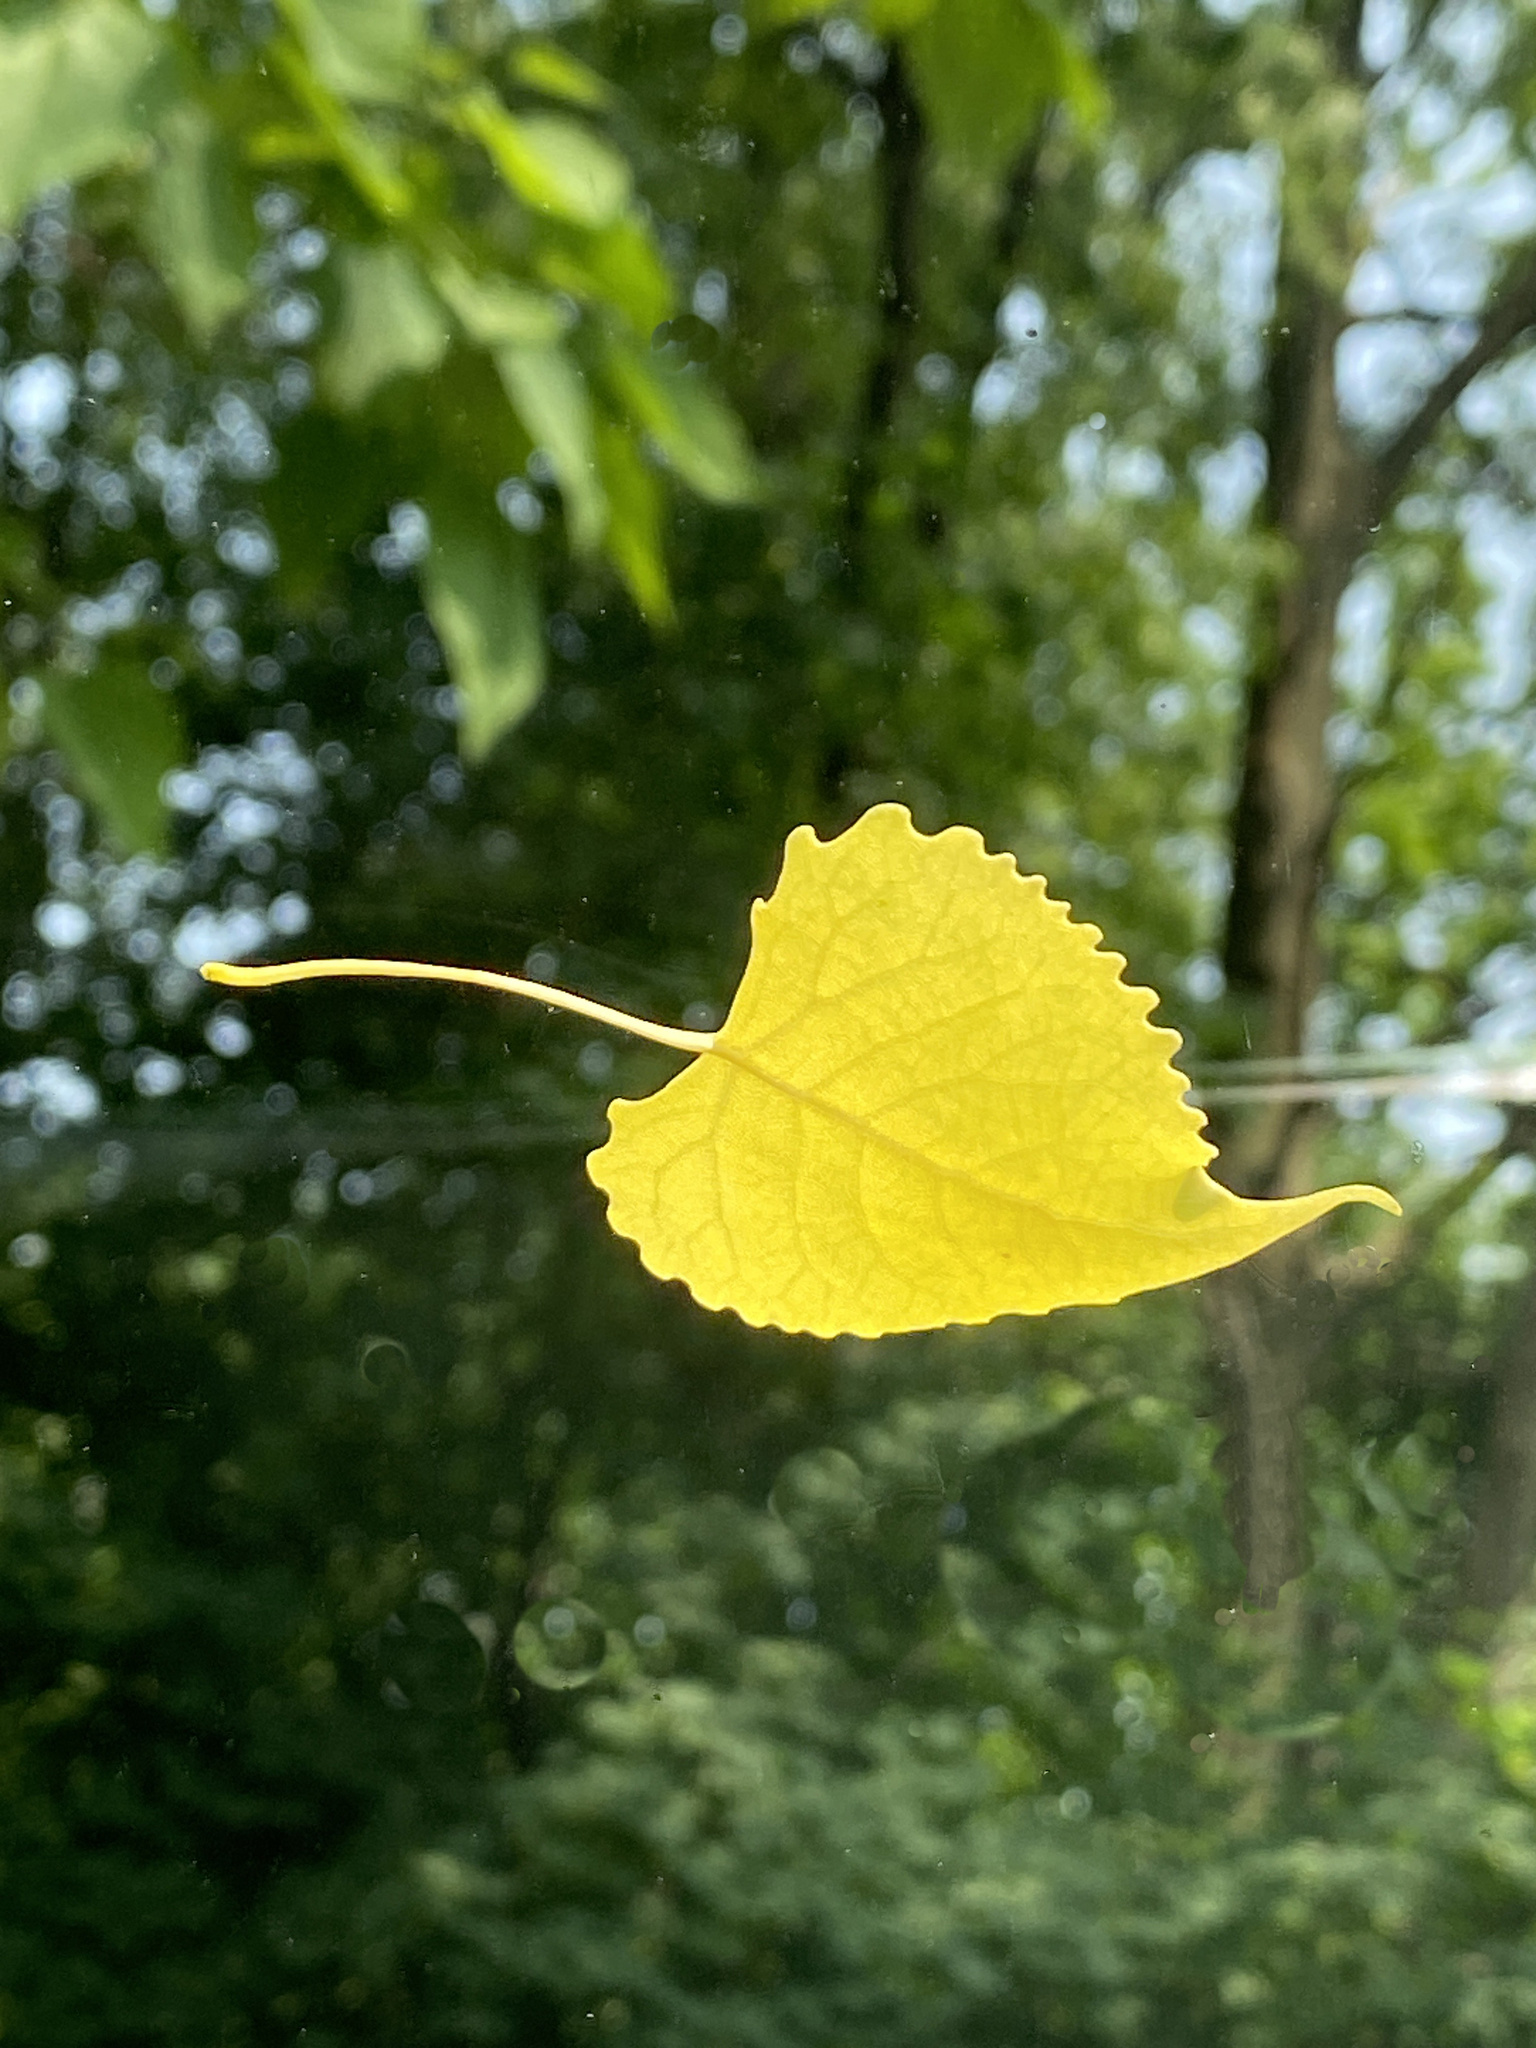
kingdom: Plantae
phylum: Tracheophyta
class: Magnoliopsida
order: Malpighiales
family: Salicaceae
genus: Populus
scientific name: Populus deltoides
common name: Eastern cottonwood
